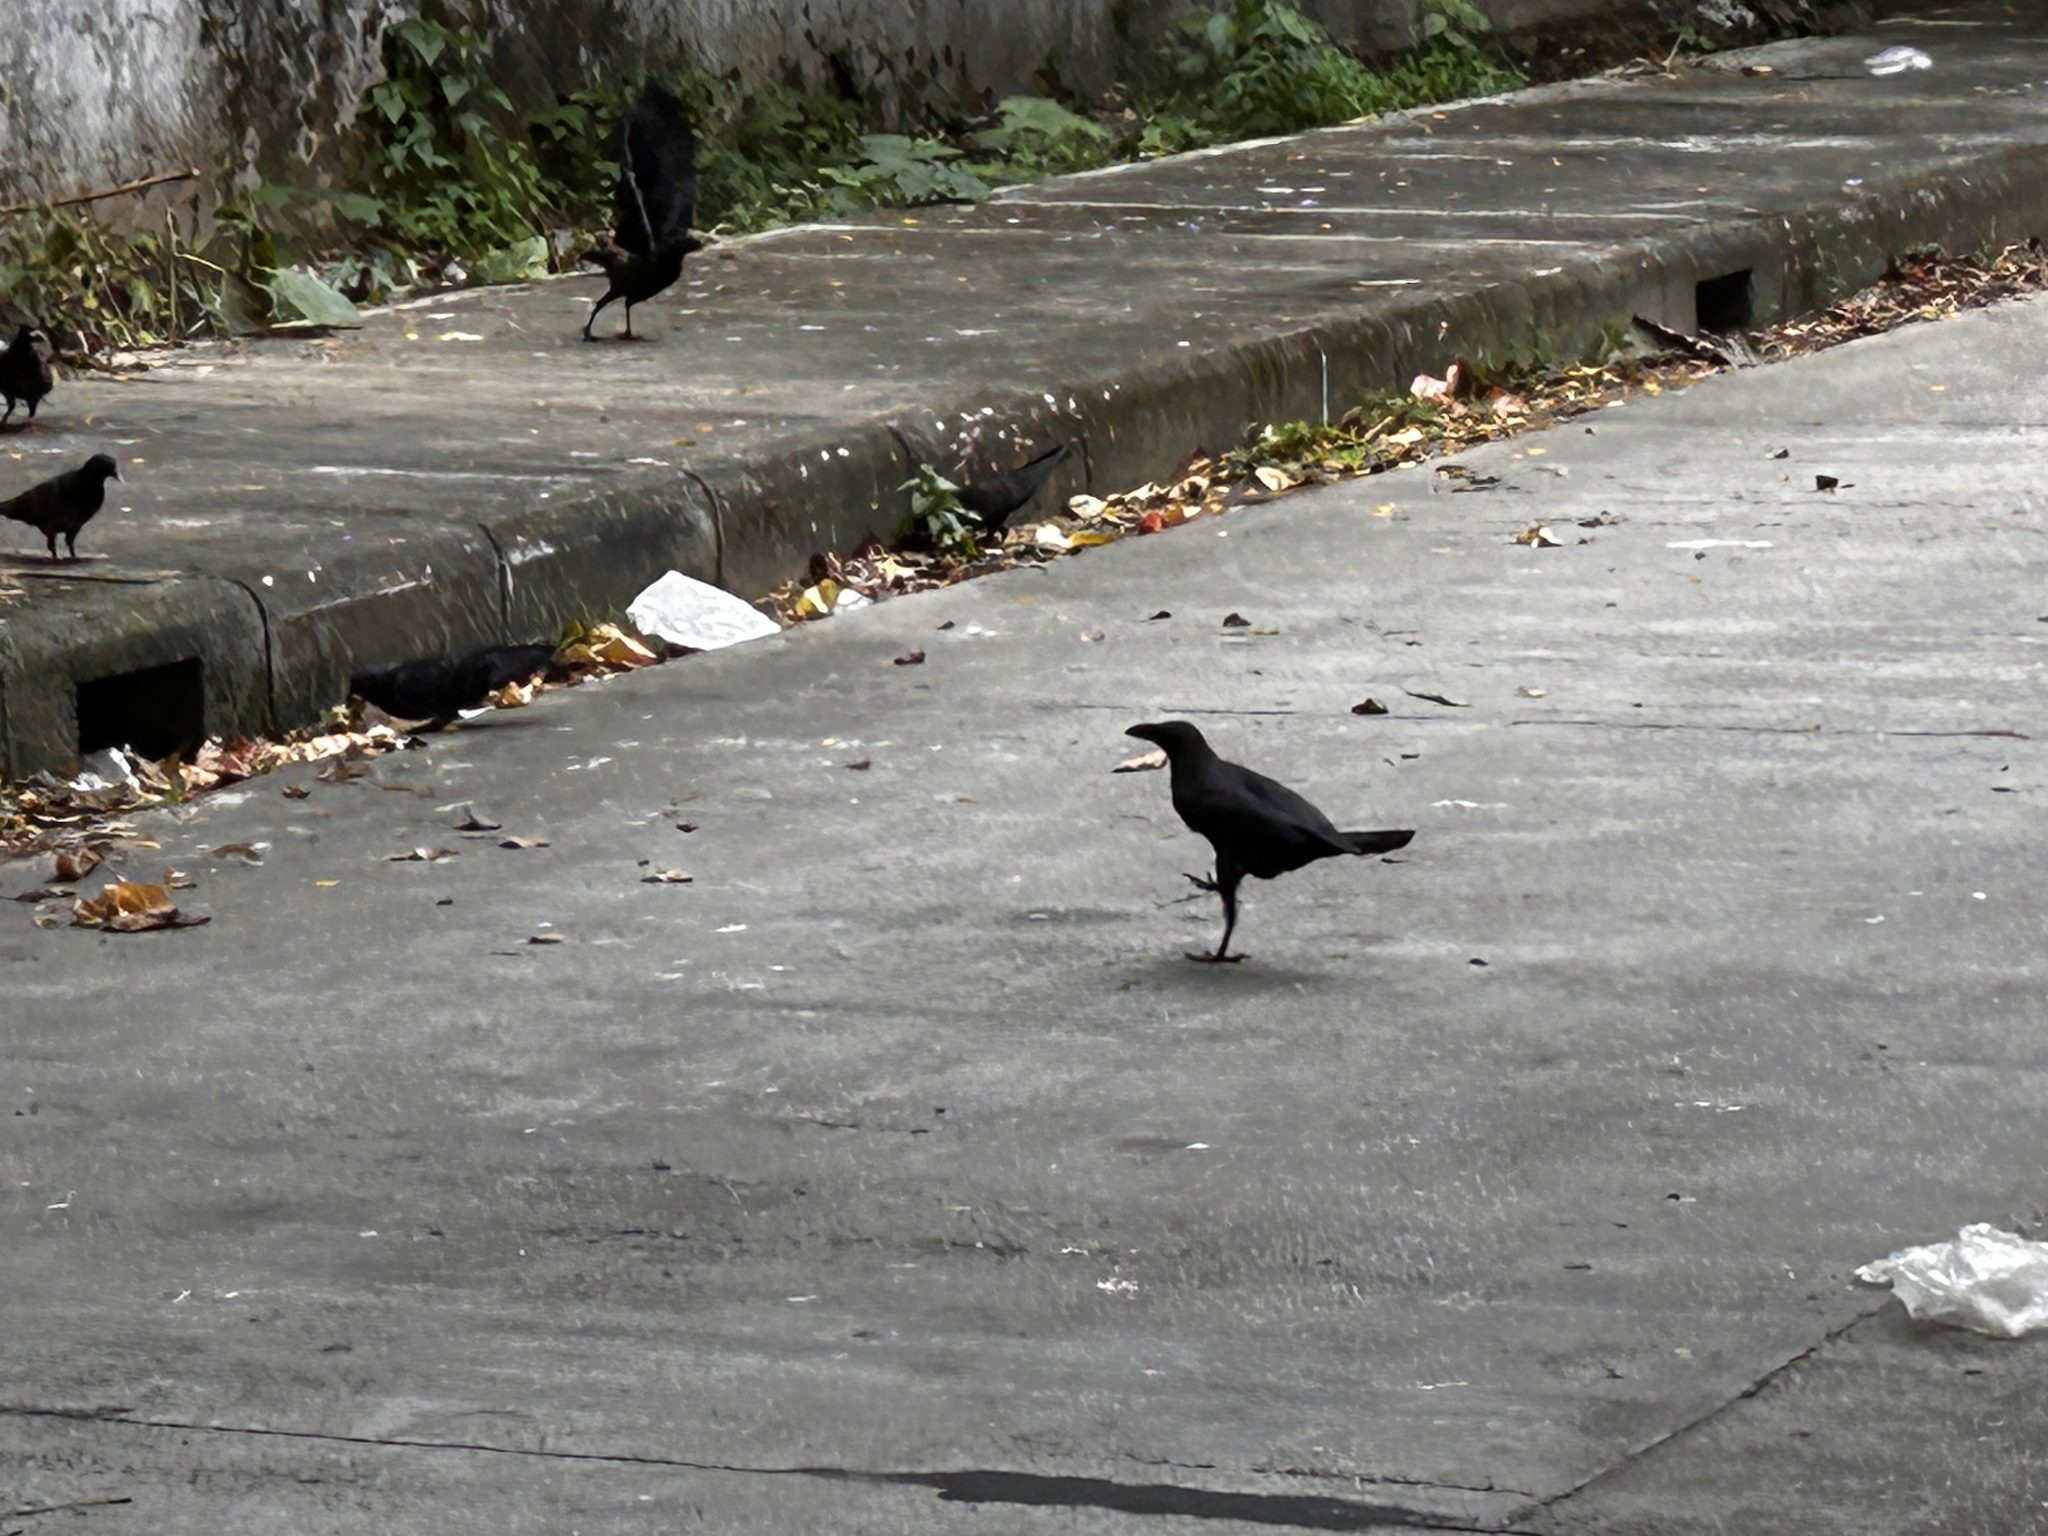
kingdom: Animalia
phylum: Chordata
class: Aves
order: Passeriformes
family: Corvidae
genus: Corvus
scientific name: Corvus splendens
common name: House crow
